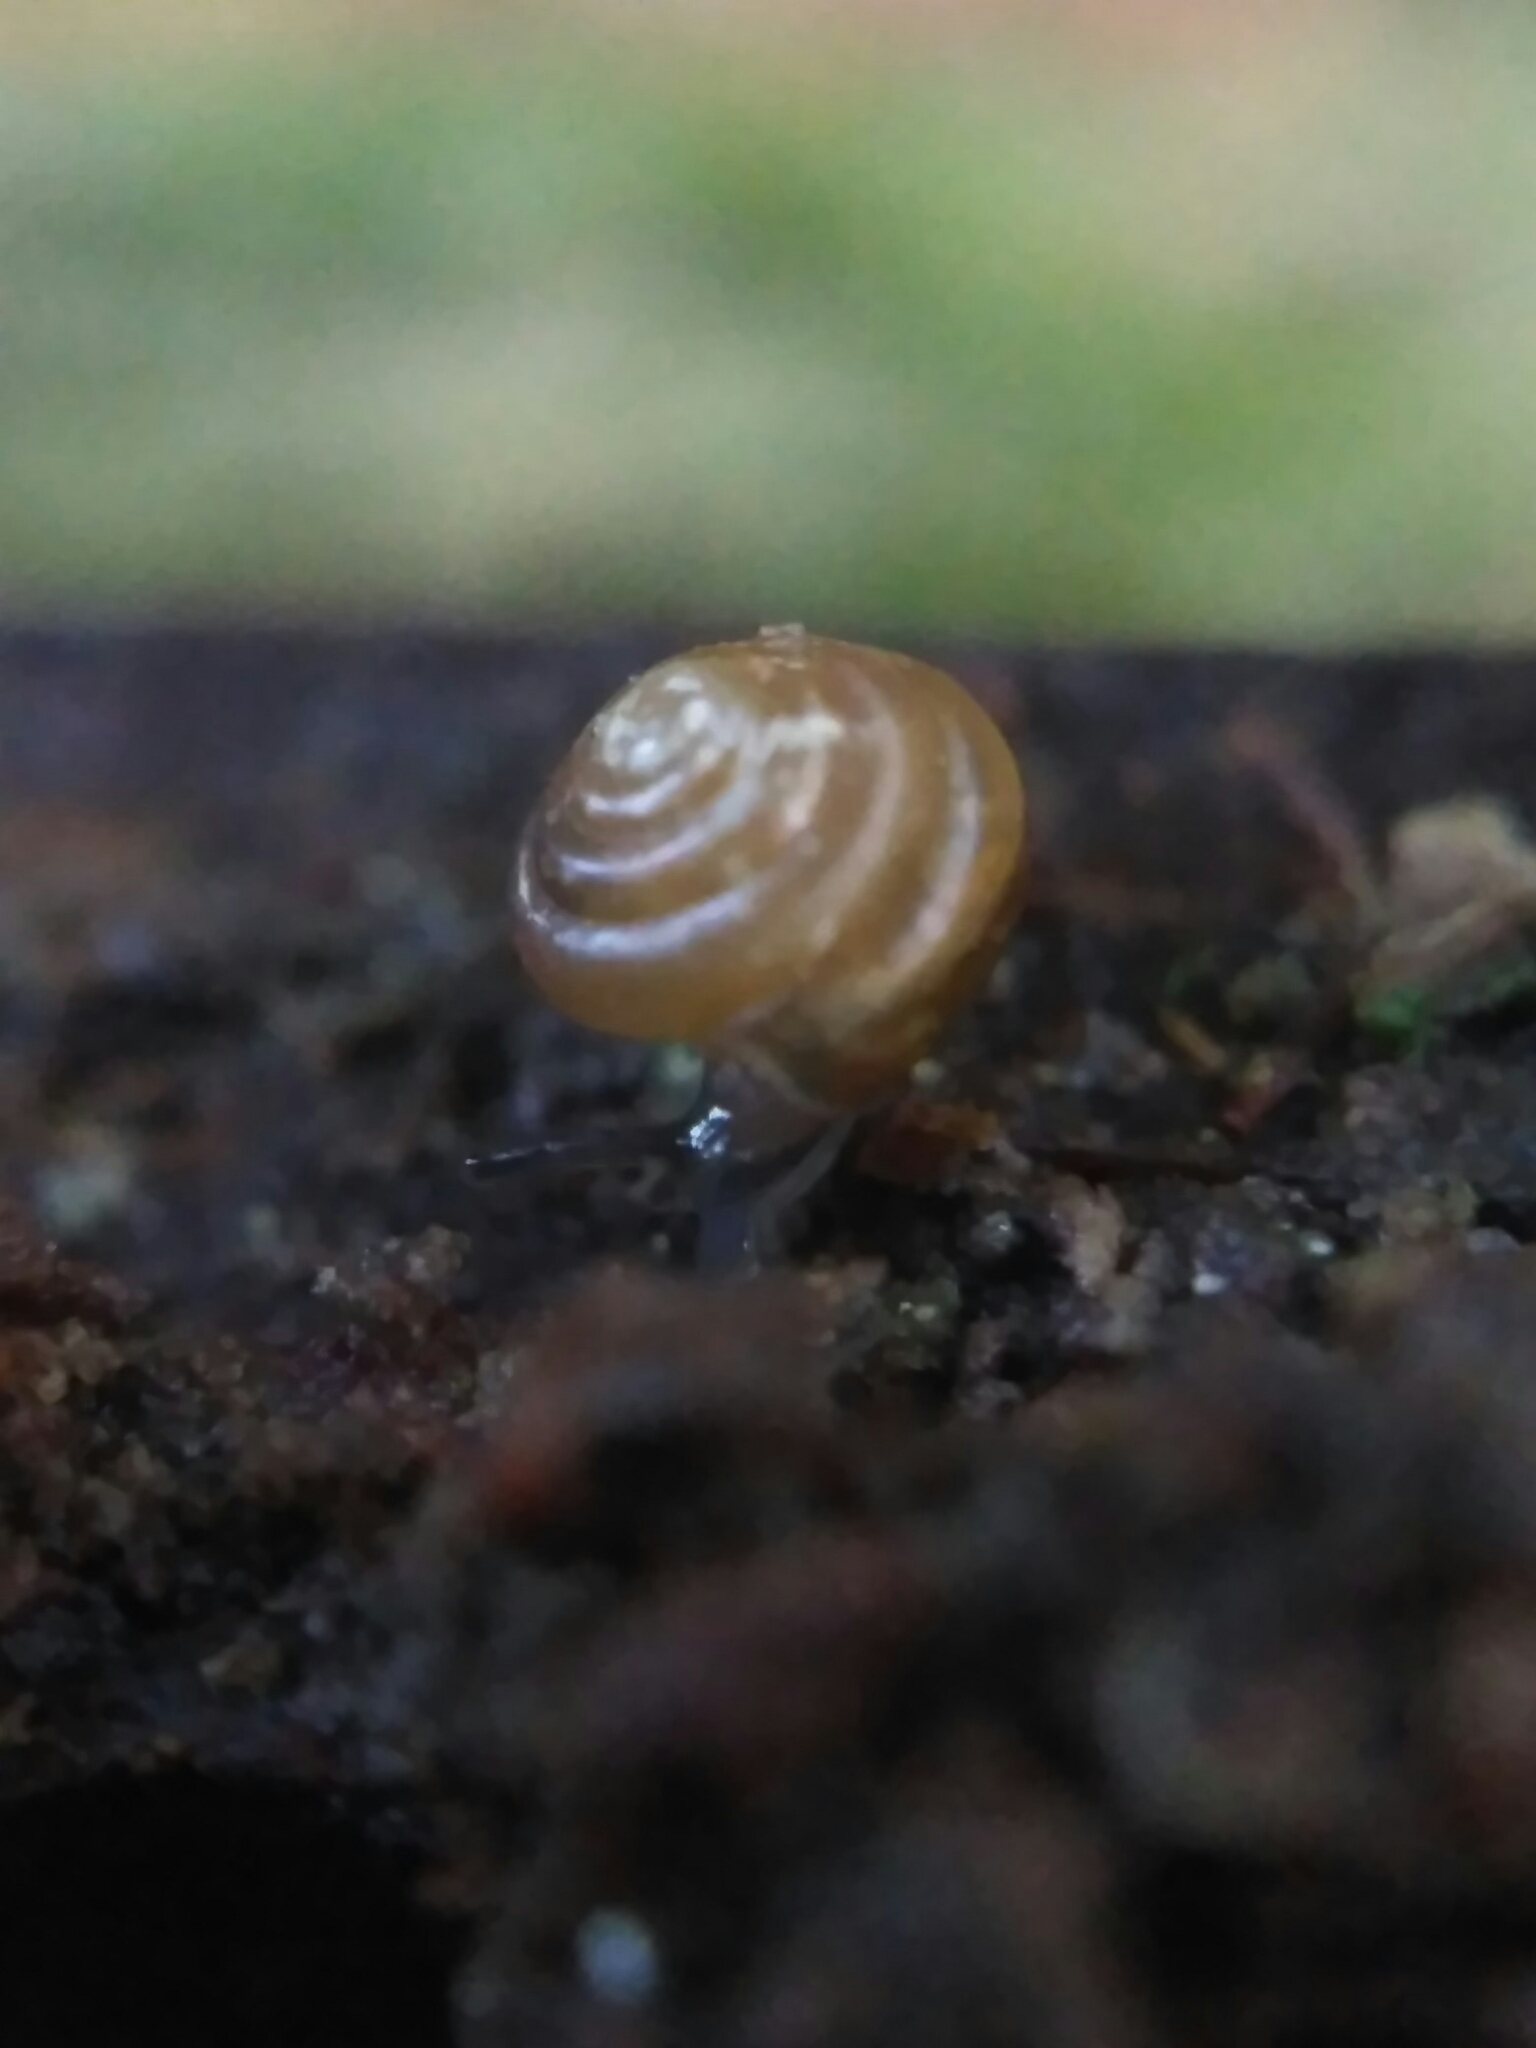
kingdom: Animalia
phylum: Mollusca
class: Gastropoda
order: Stylommatophora
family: Euconulidae
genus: Euconulus
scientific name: Euconulus fulvus
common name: Tawny glass snail
